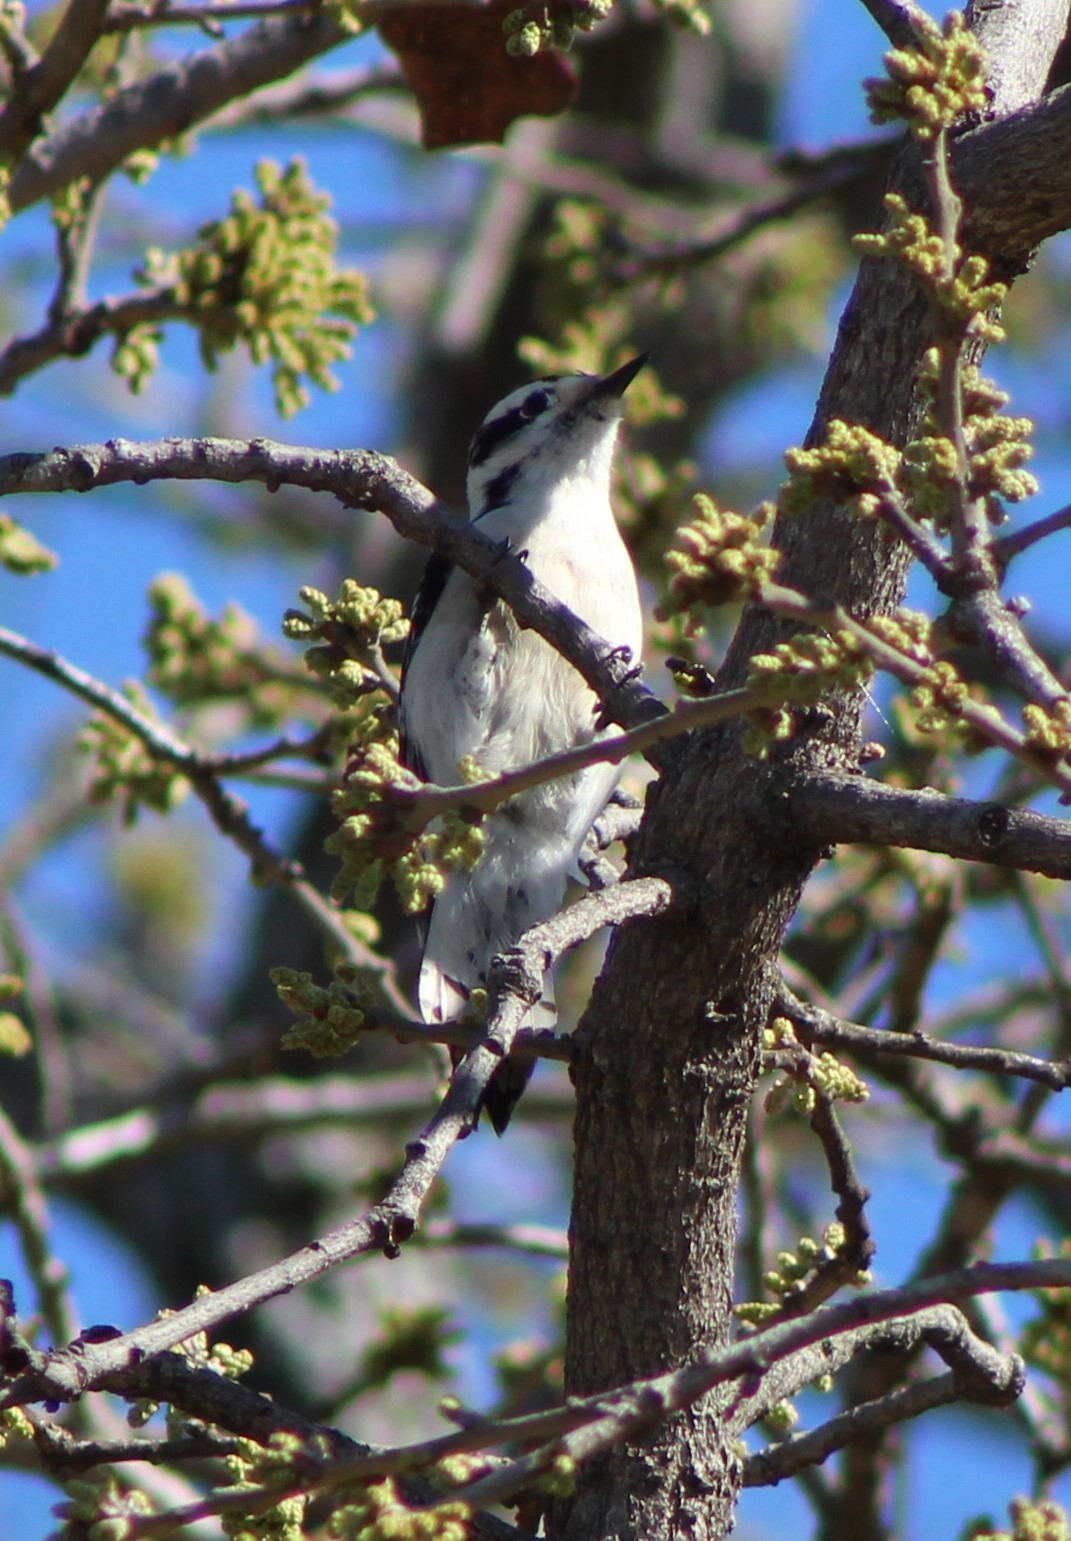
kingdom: Animalia
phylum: Chordata
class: Aves
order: Piciformes
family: Picidae
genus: Dryobates
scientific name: Dryobates pubescens
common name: Downy woodpecker
